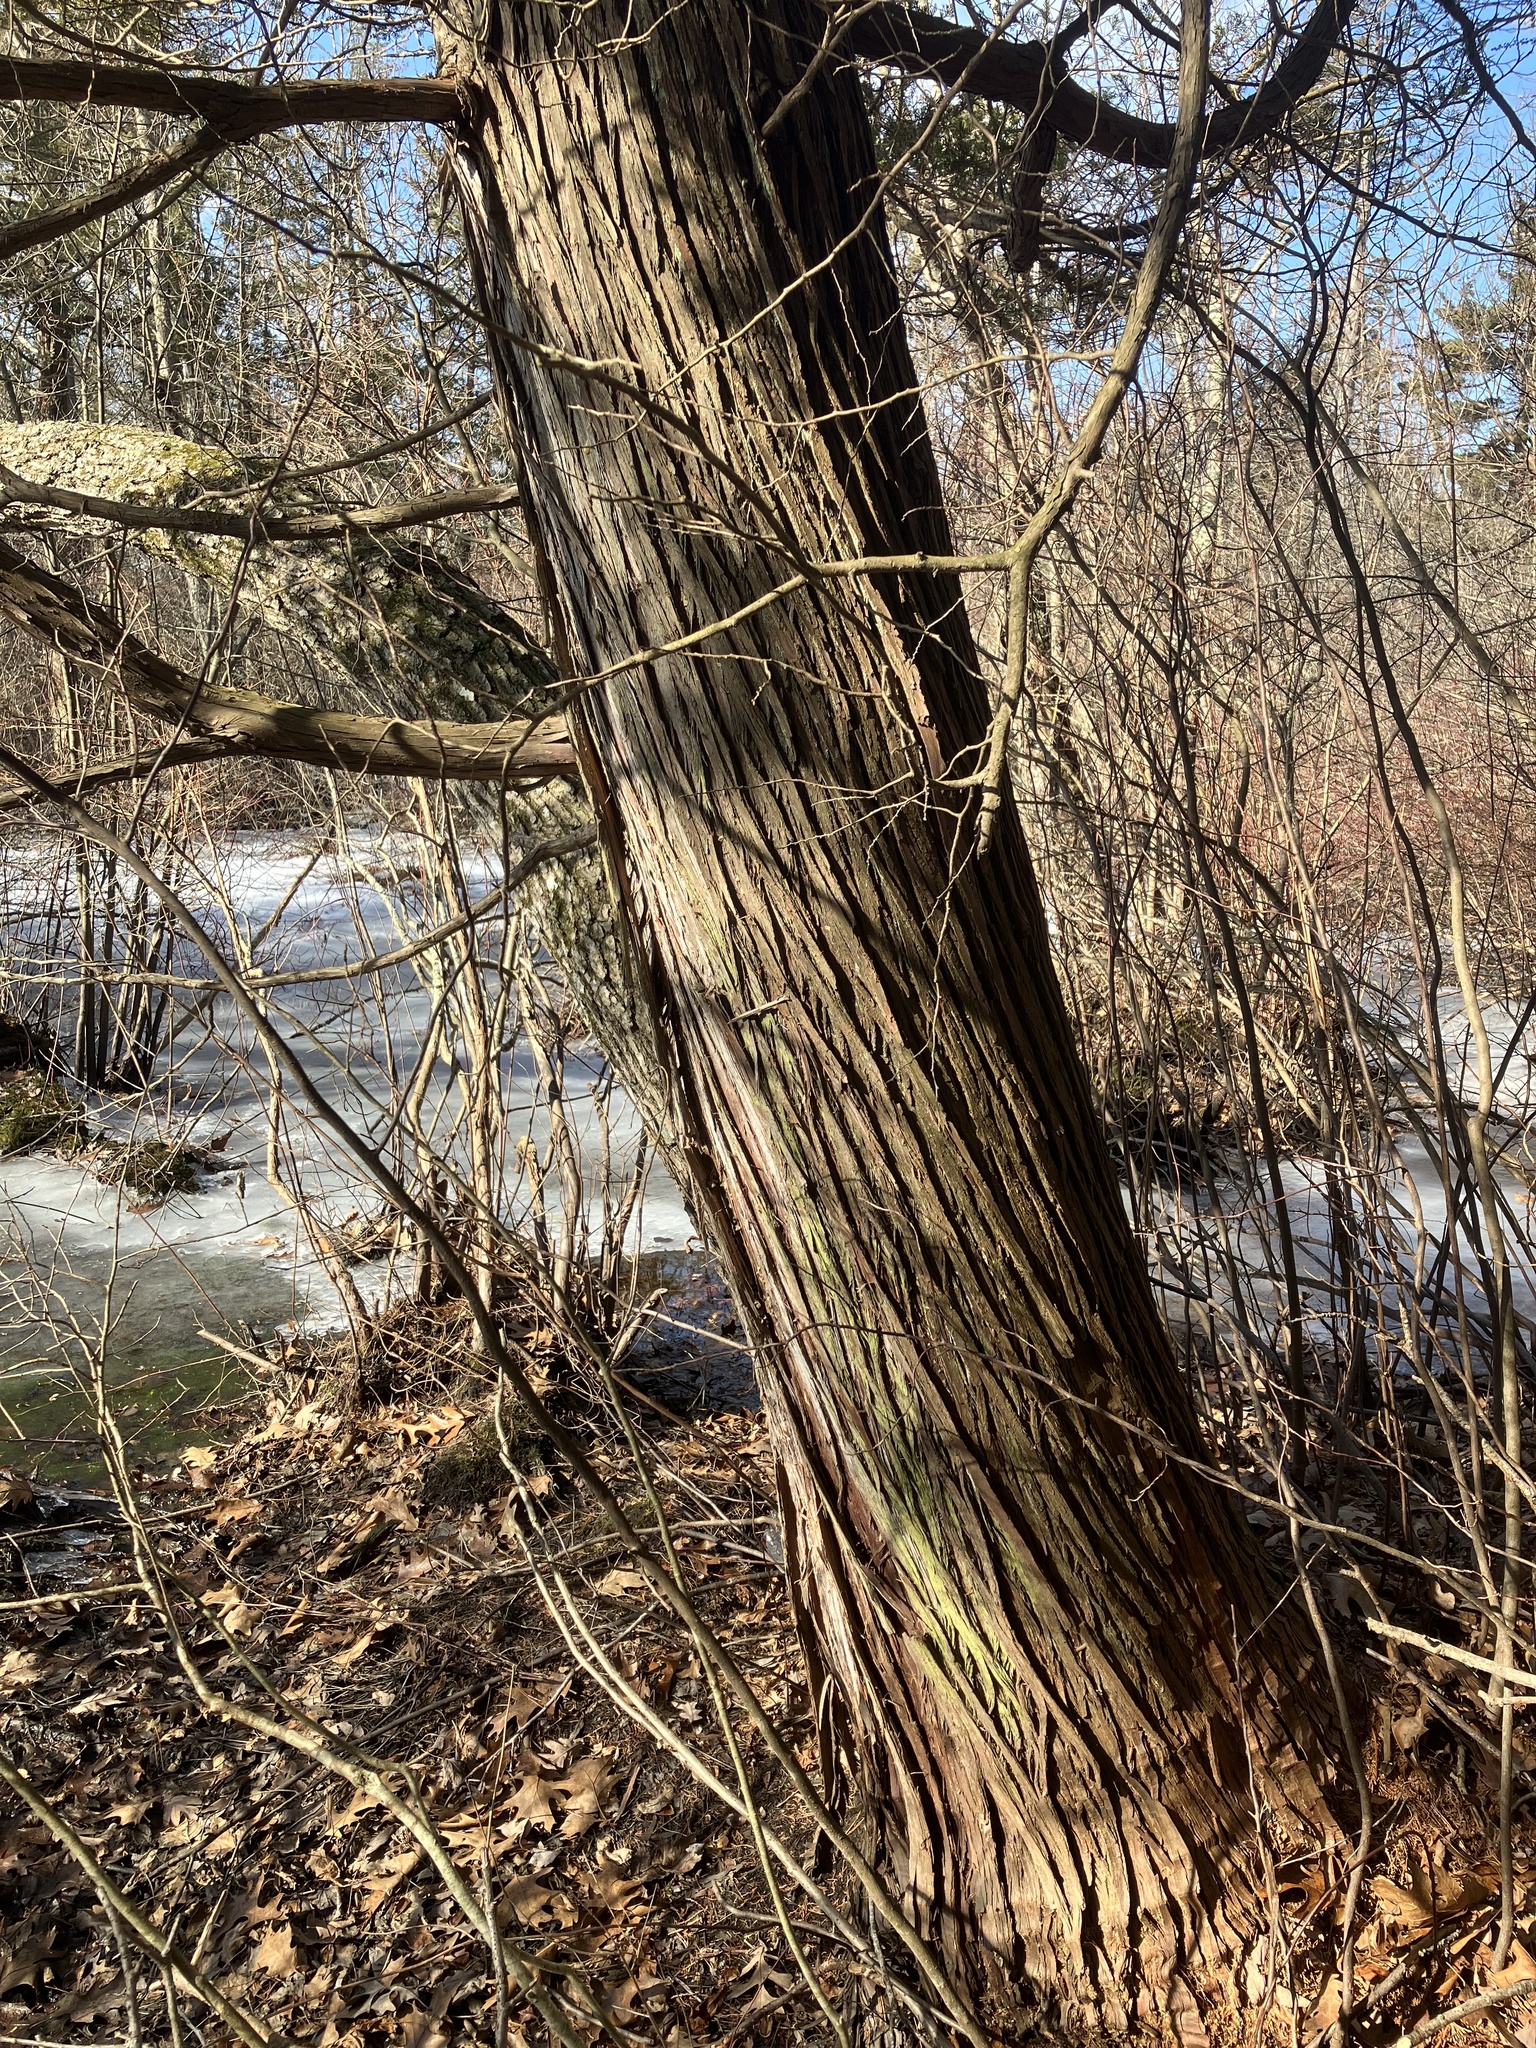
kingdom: Plantae
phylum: Tracheophyta
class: Pinopsida
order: Pinales
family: Cupressaceae
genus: Chamaecyparis
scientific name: Chamaecyparis thyoides
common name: Atlantic white cedar
